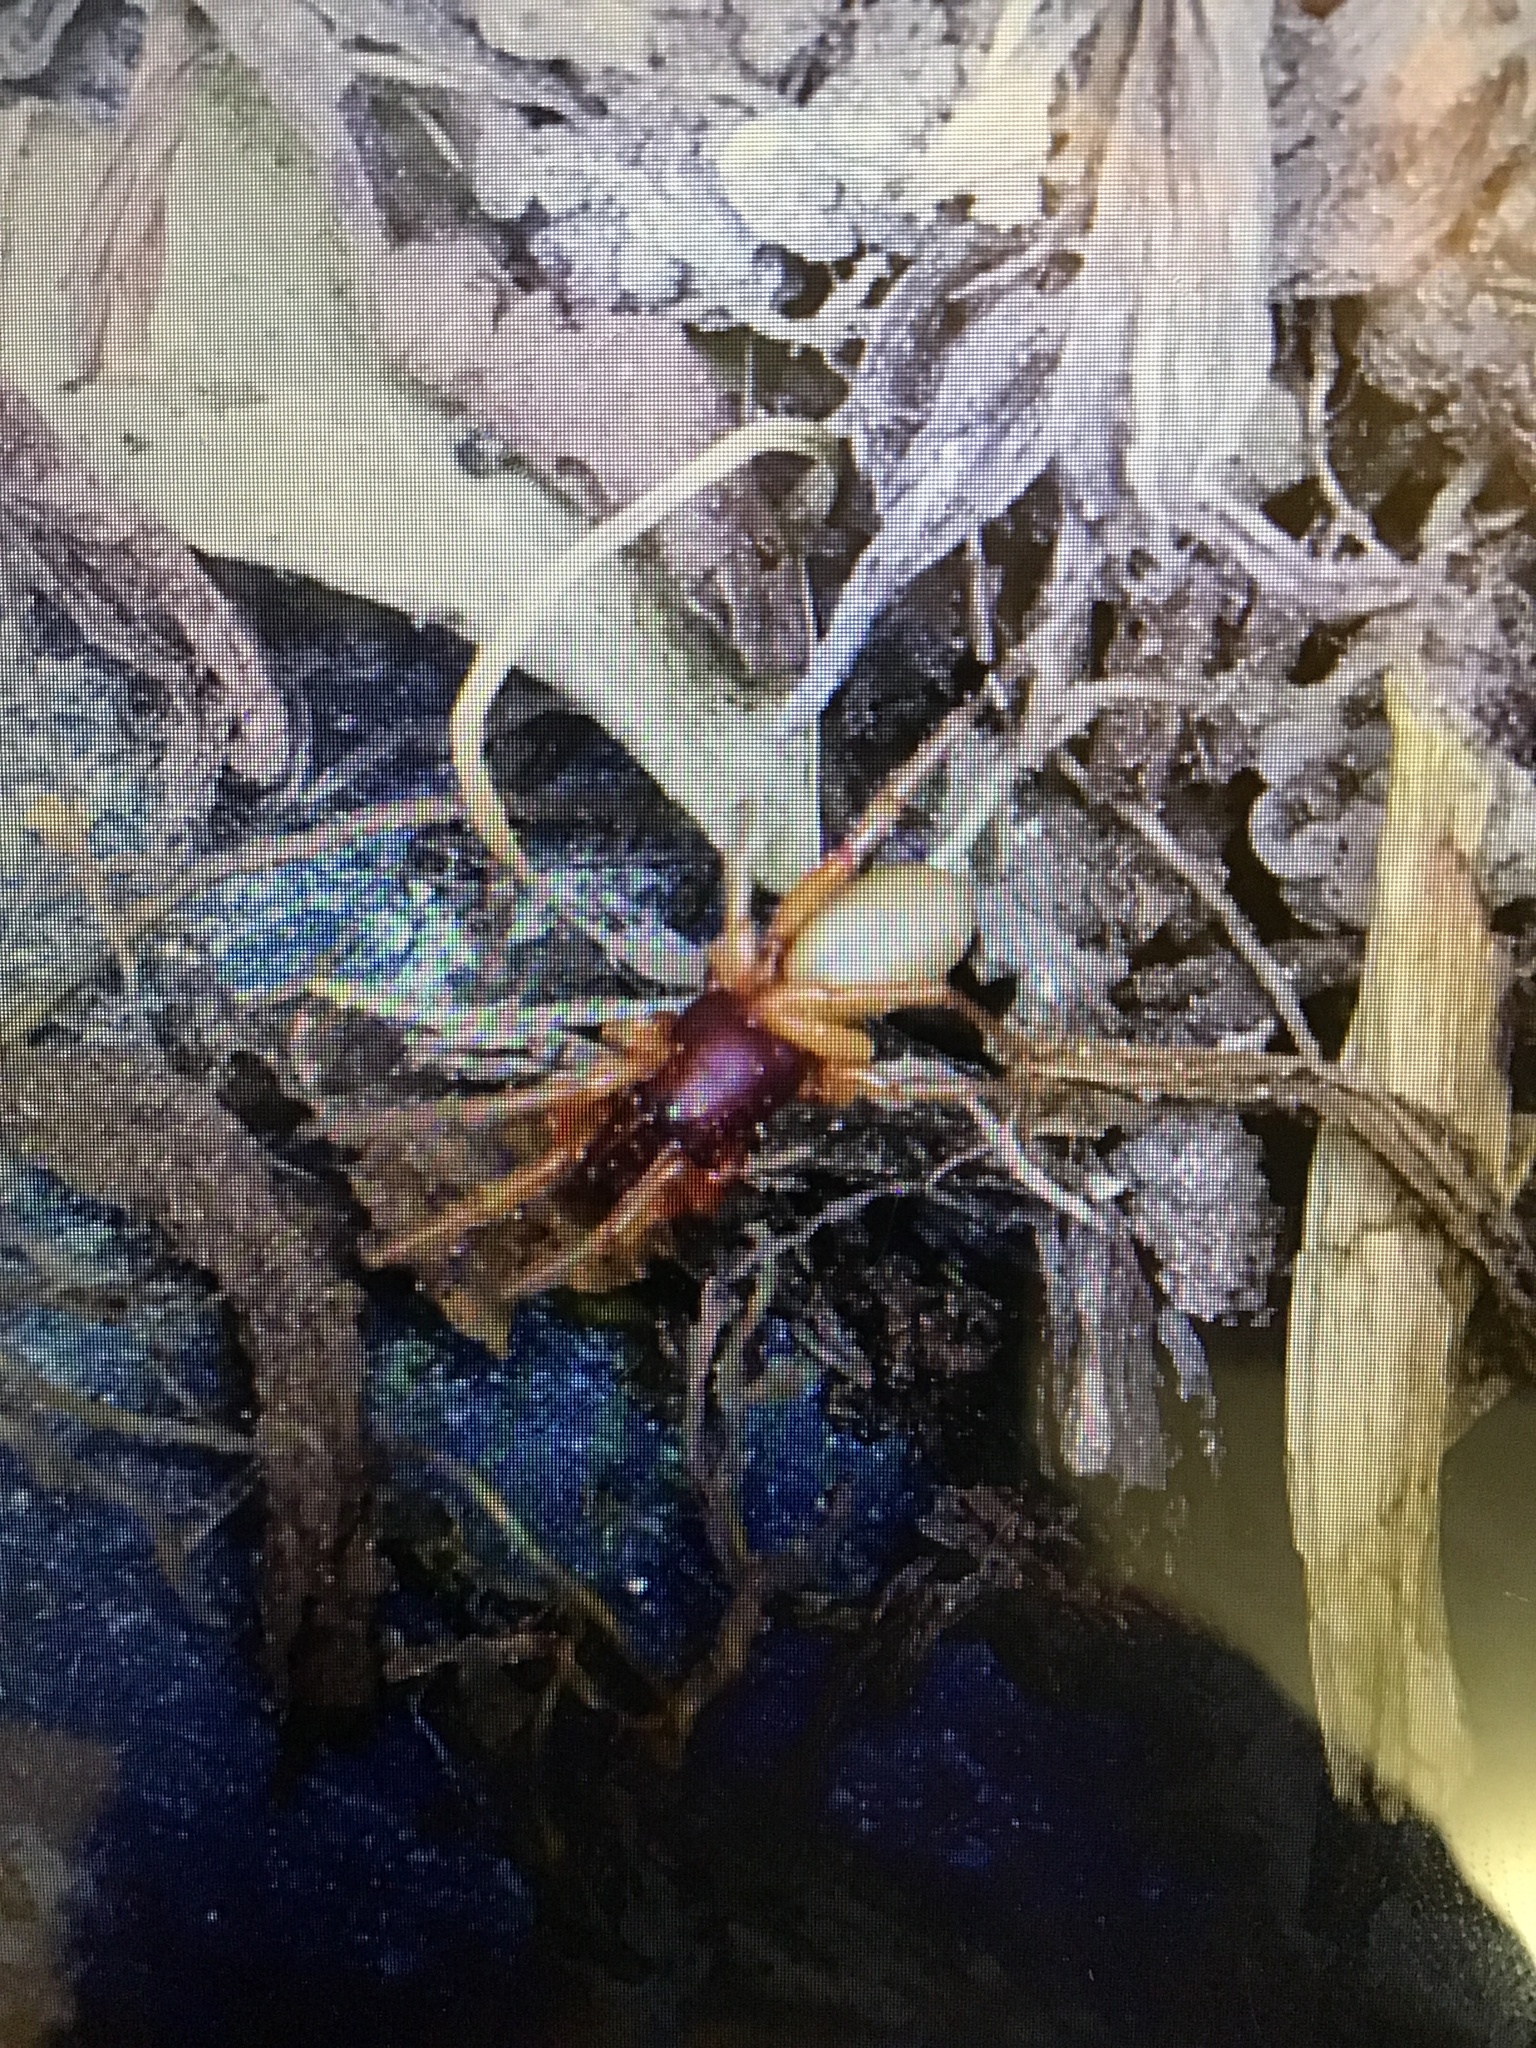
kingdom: Animalia
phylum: Arthropoda
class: Arachnida
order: Araneae
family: Dysderidae
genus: Dysdera
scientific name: Dysdera crocata
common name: Woodlouse spider
